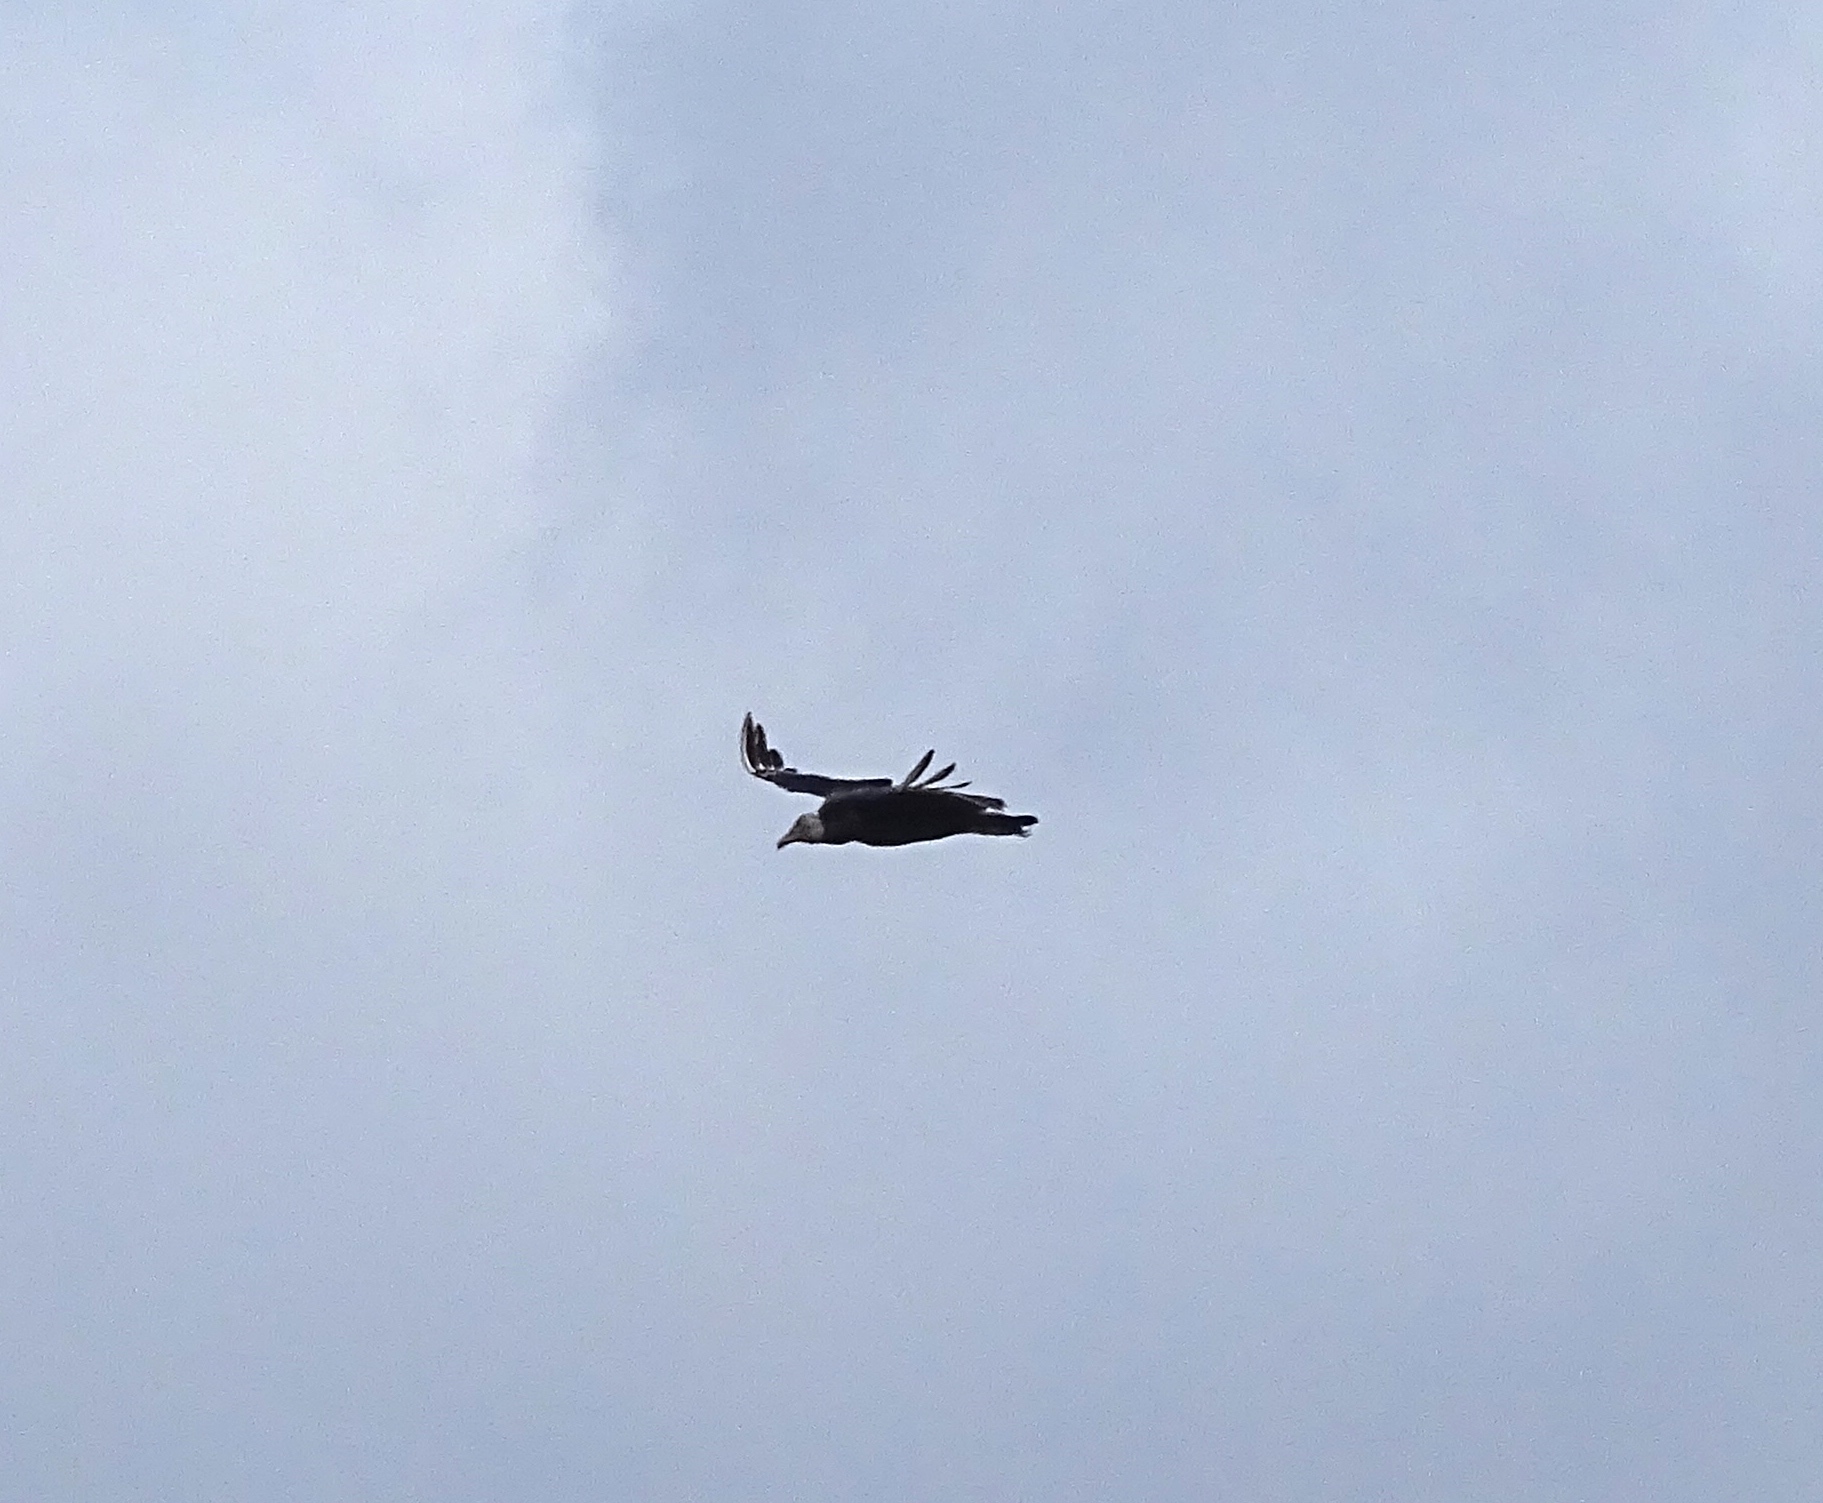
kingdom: Animalia
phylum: Chordata
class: Aves
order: Accipitriformes
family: Cathartidae
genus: Coragyps
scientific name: Coragyps atratus
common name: Black vulture
